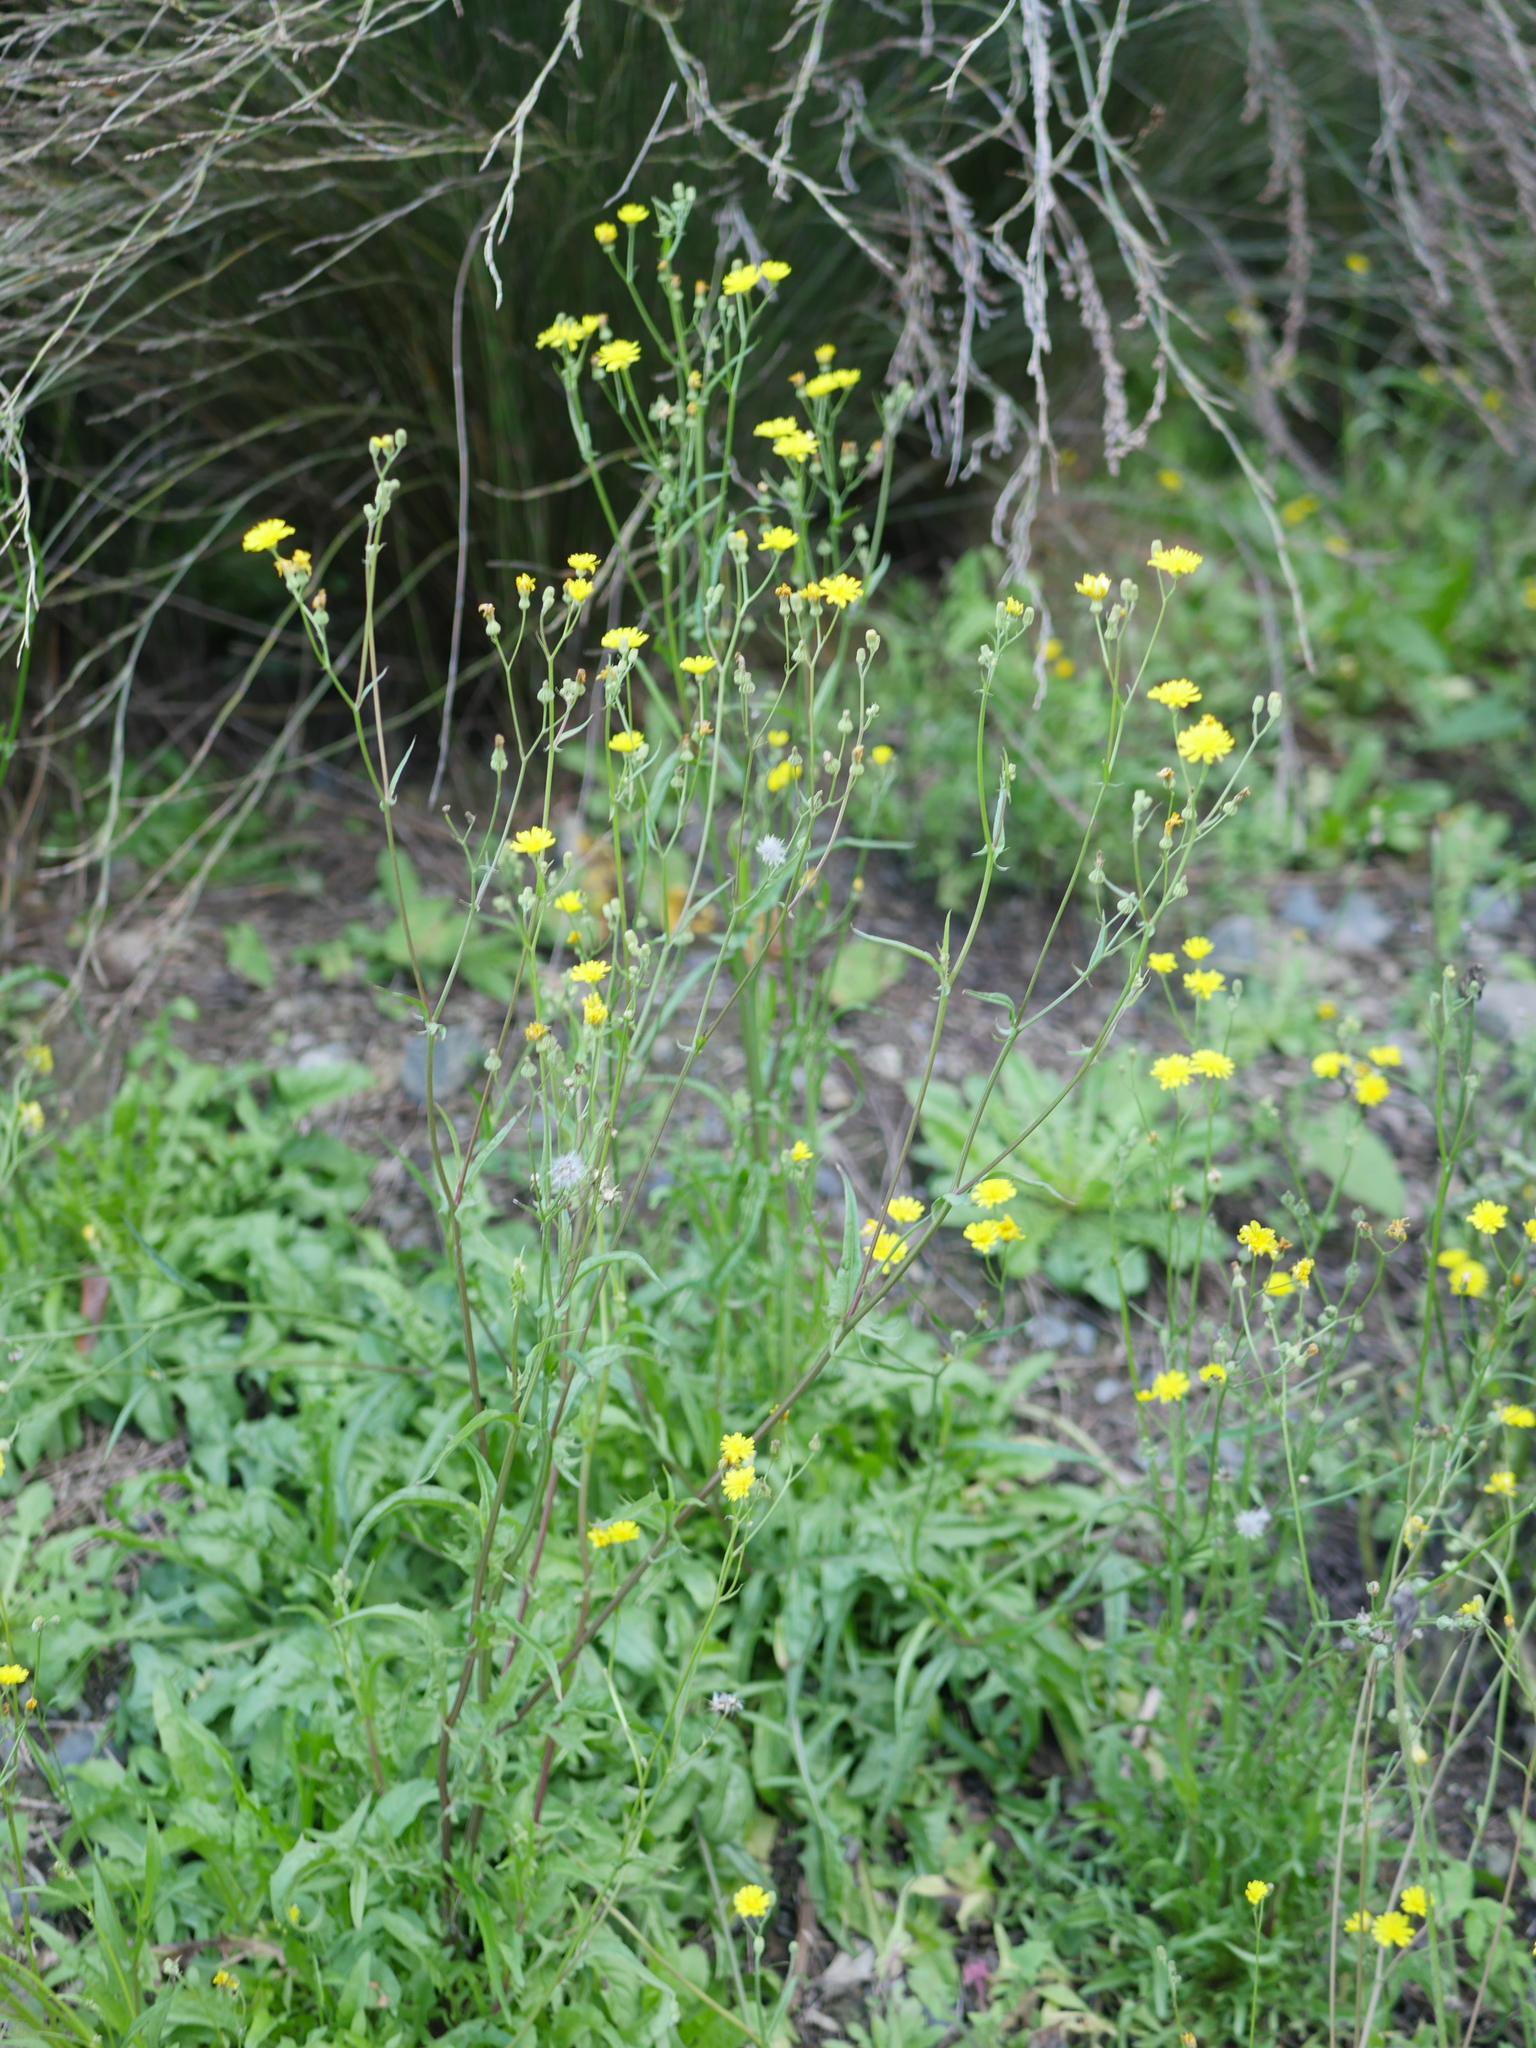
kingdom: Plantae
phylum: Tracheophyta
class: Magnoliopsida
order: Asterales
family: Asteraceae
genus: Crepis
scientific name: Crepis capillaris
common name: Smooth hawksbeard
